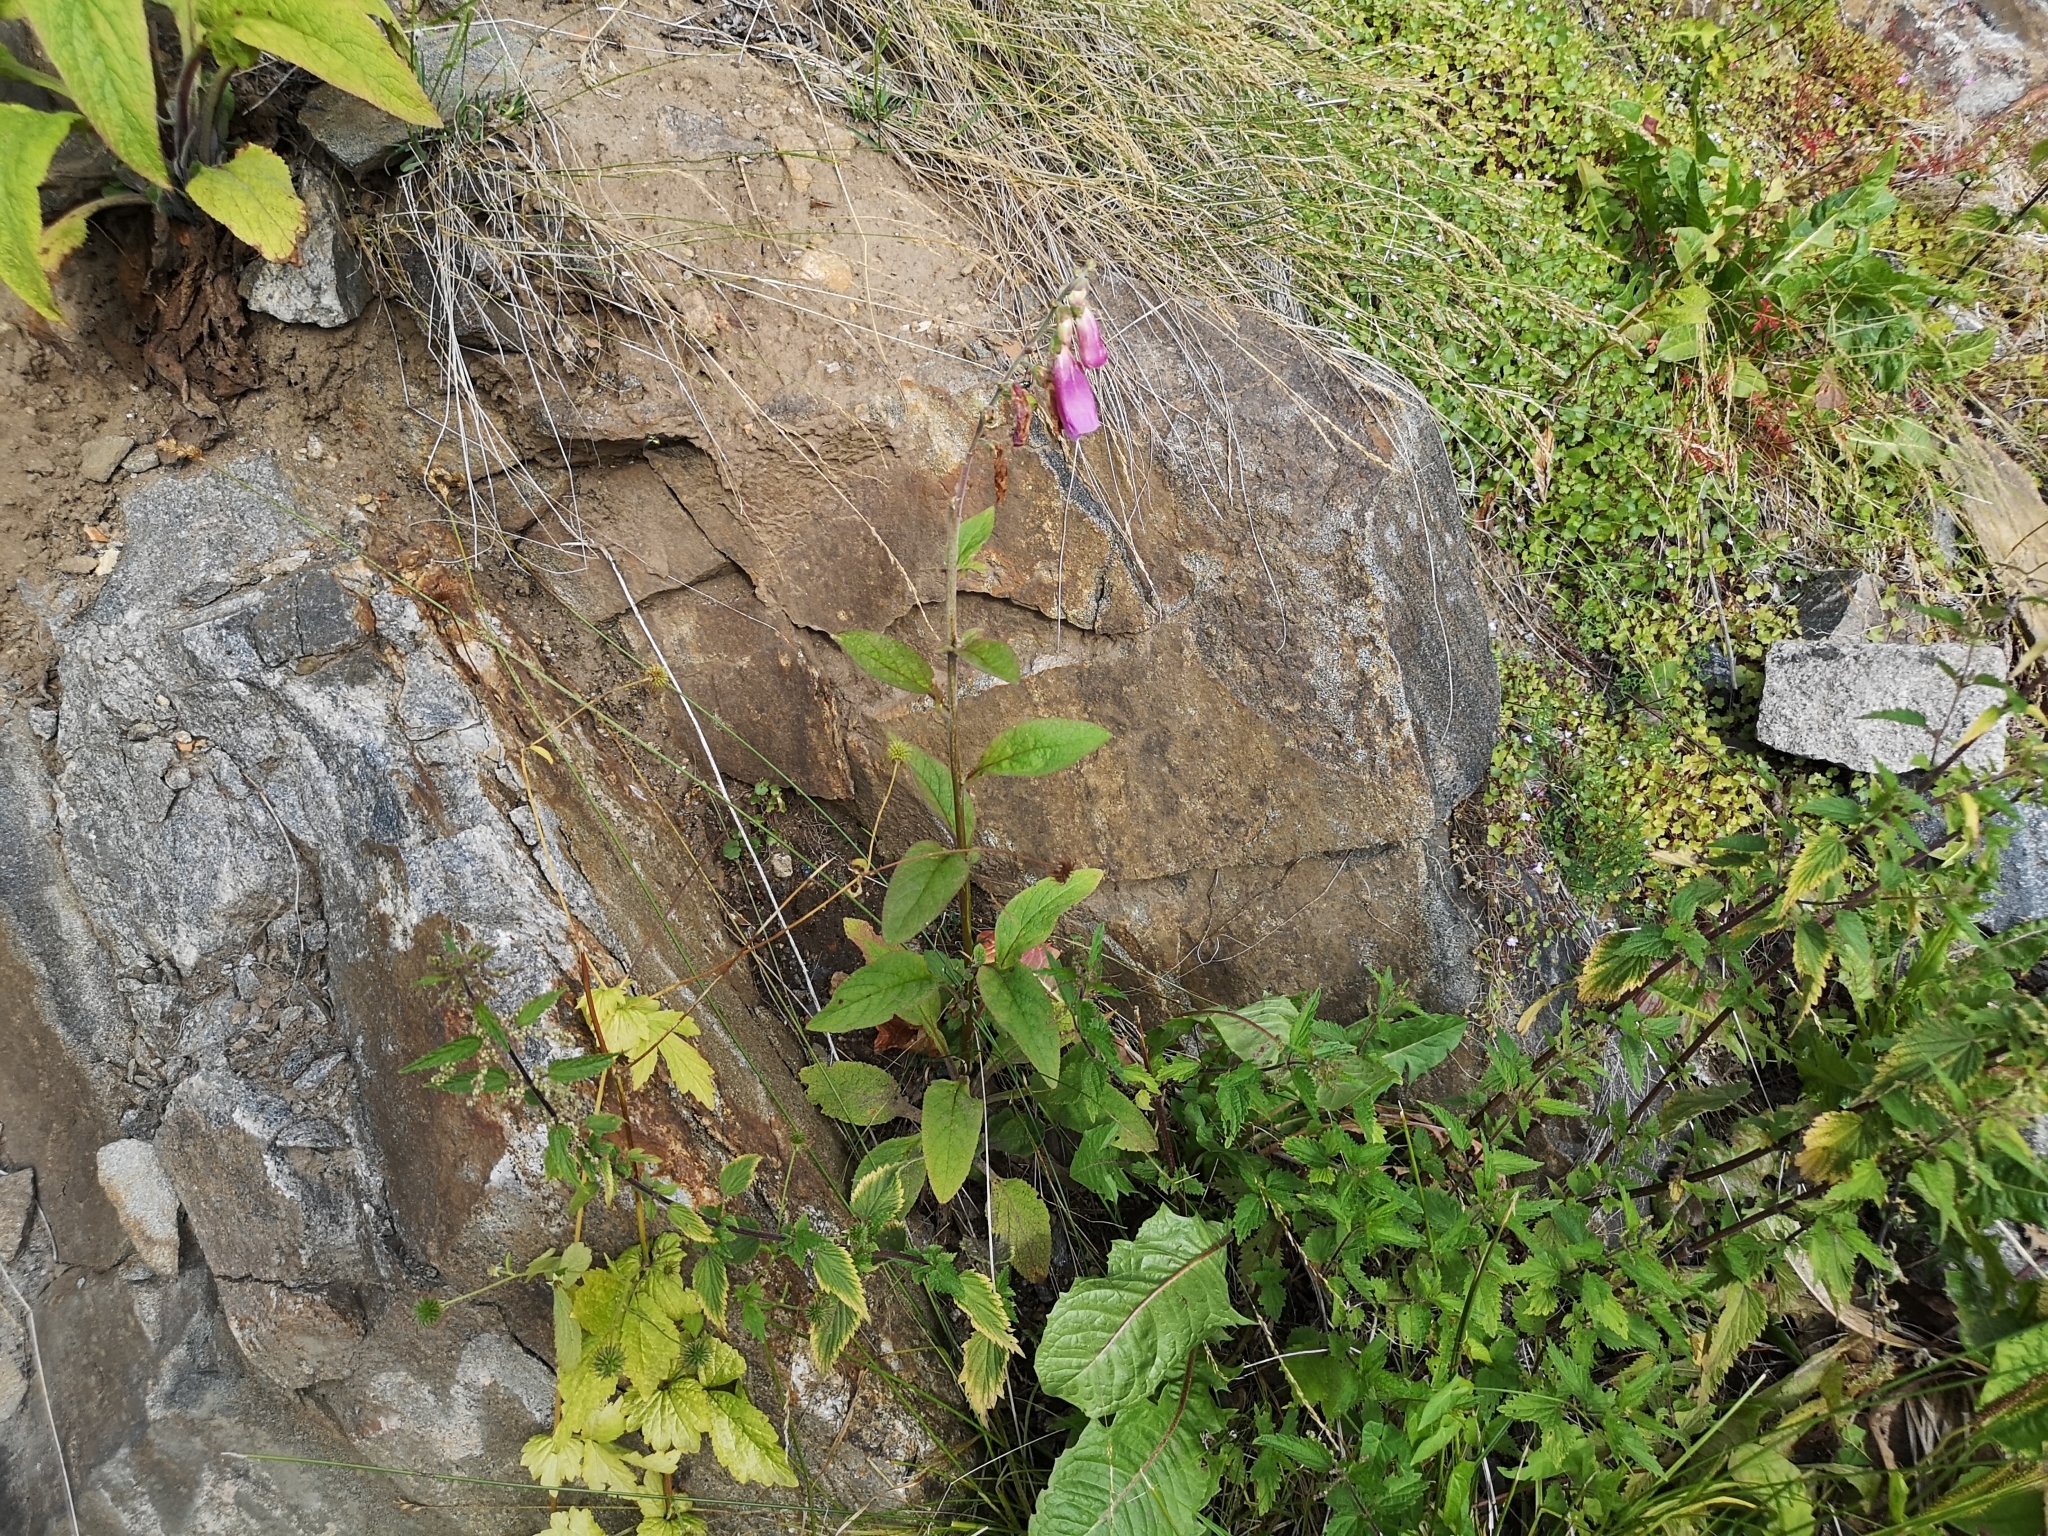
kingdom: Plantae
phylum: Tracheophyta
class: Magnoliopsida
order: Lamiales
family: Plantaginaceae
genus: Digitalis
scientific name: Digitalis purpurea
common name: Foxglove
